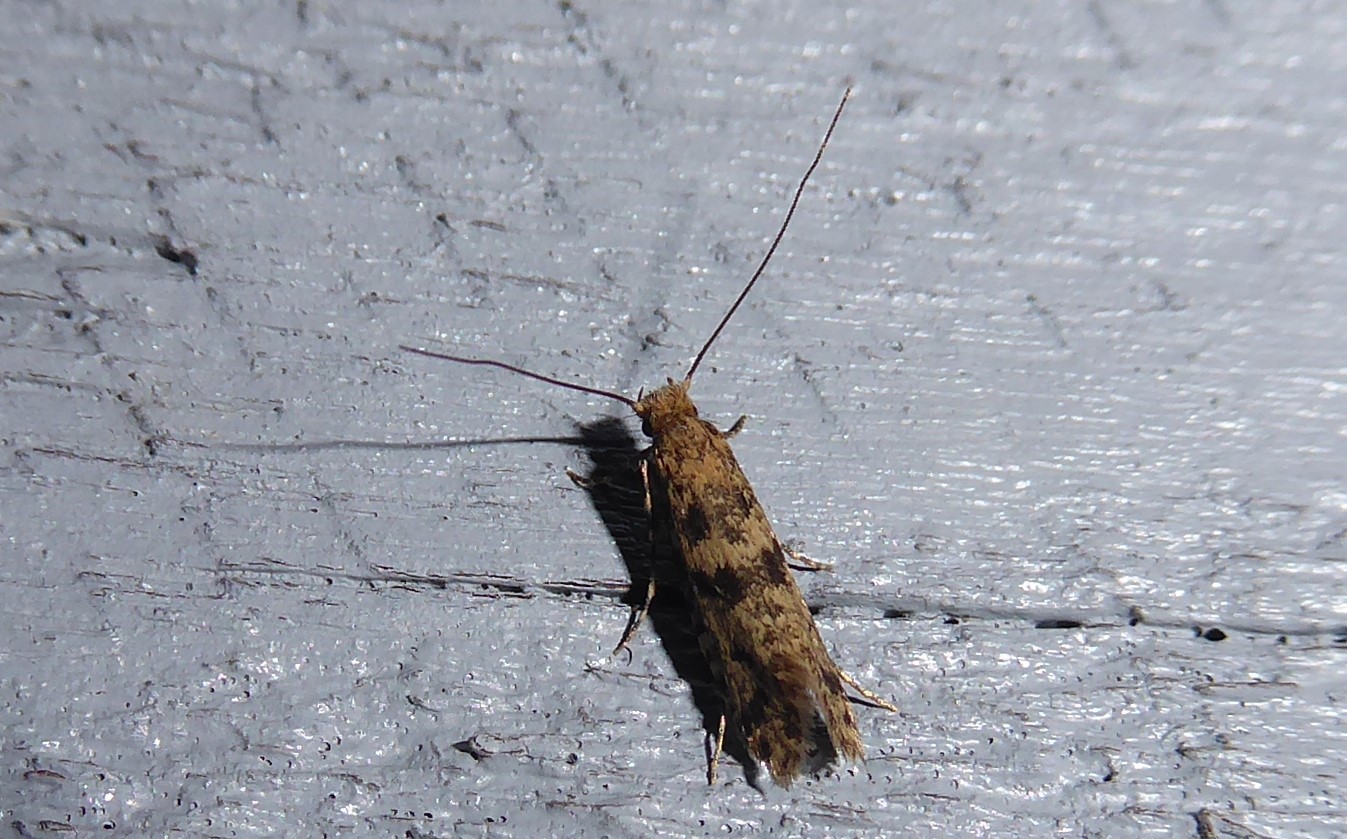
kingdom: Animalia
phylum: Arthropoda
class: Insecta
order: Lepidoptera
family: Tineidae
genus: Archyala
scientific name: Archyala terranea
